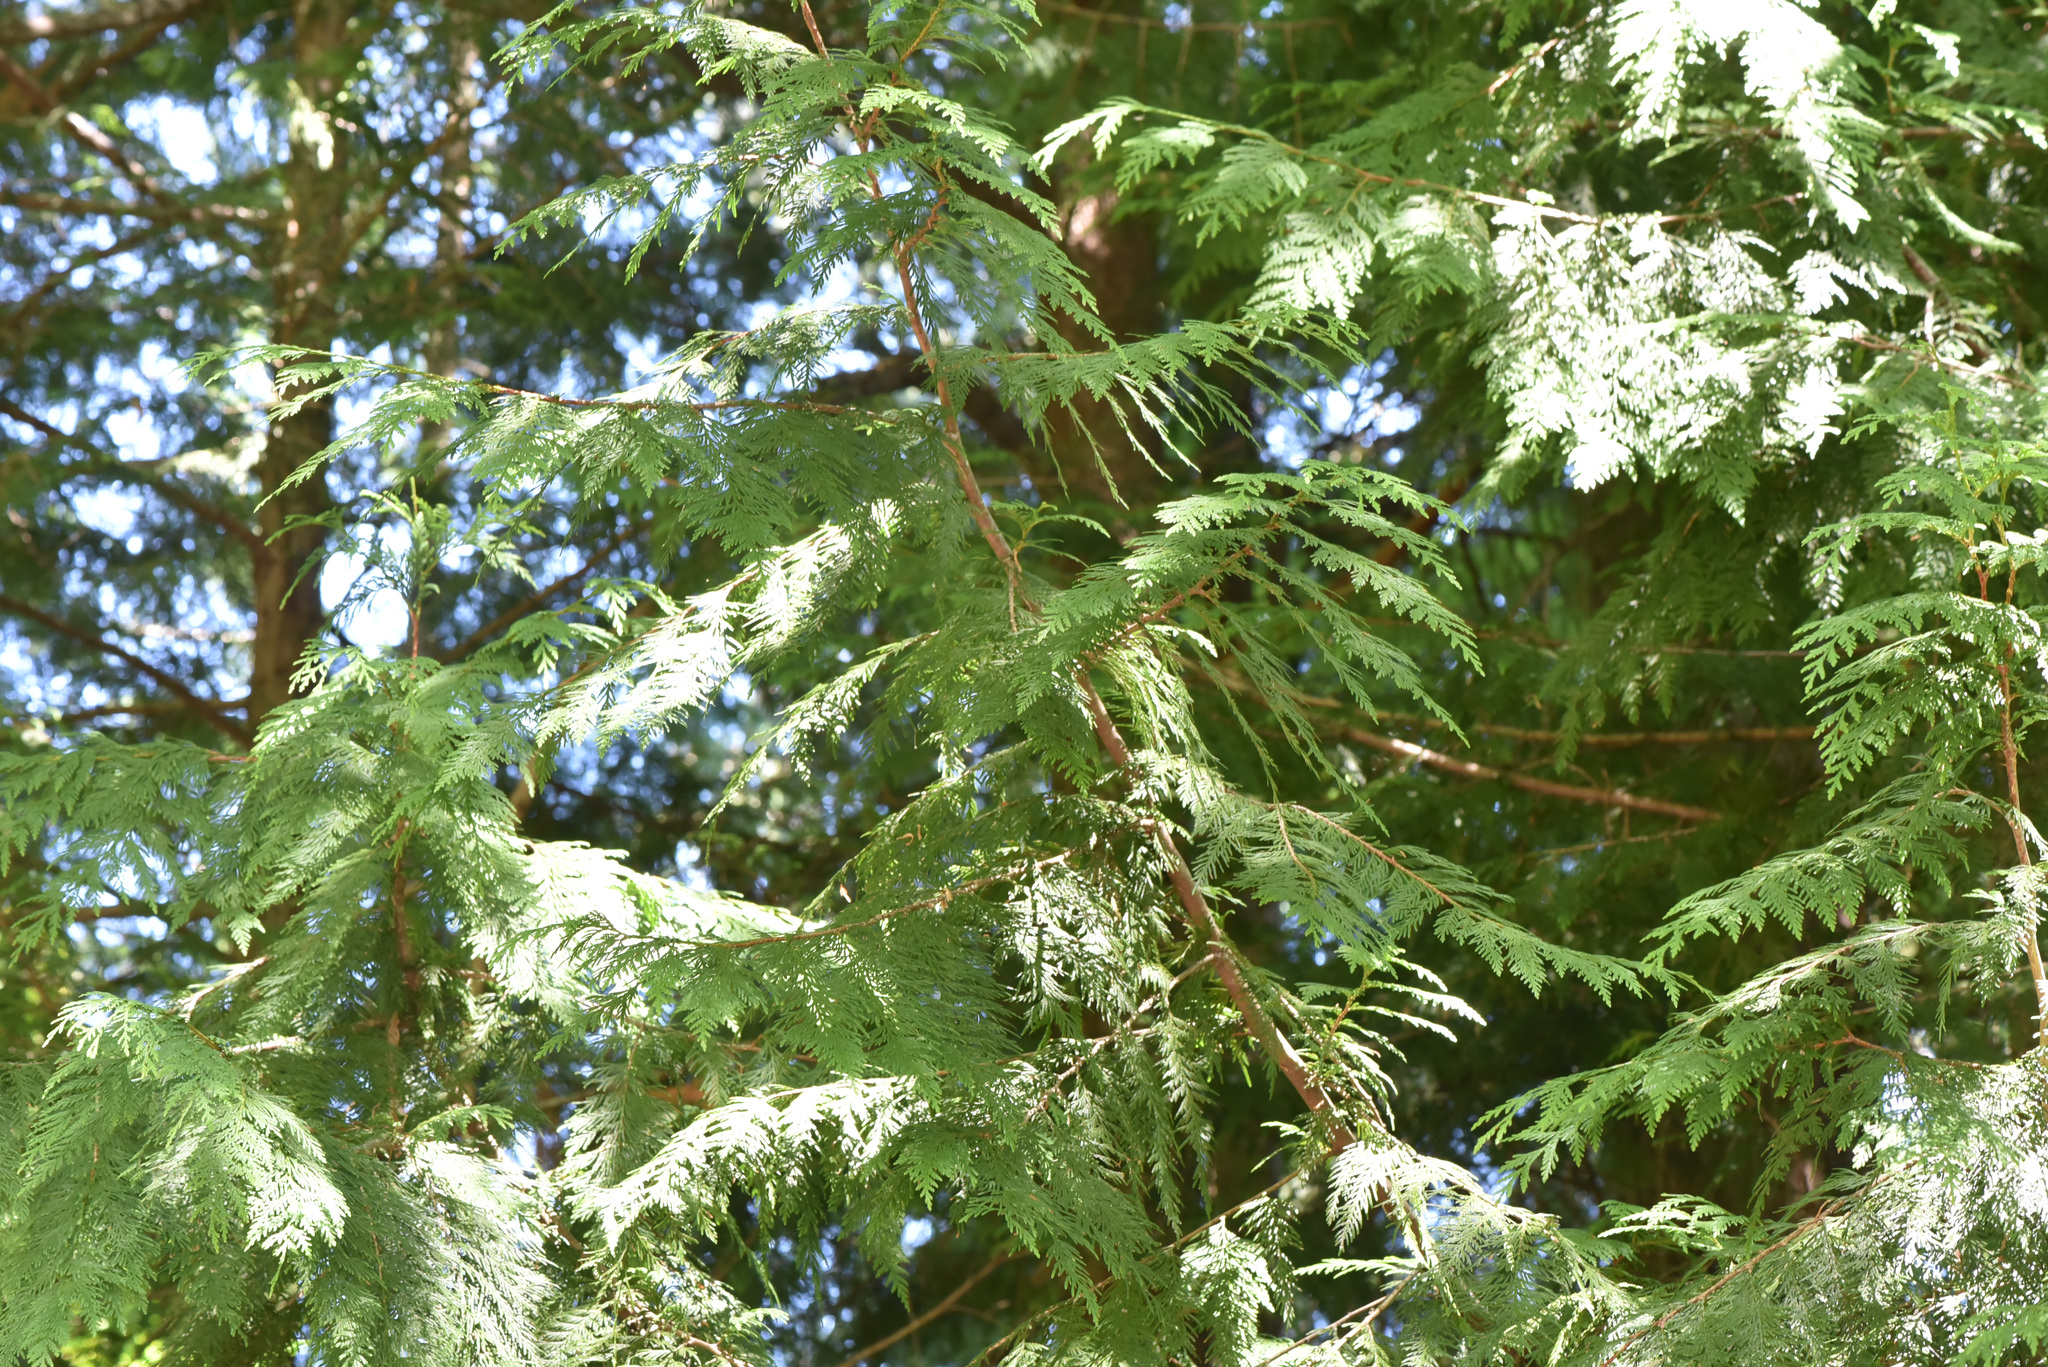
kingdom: Plantae
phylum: Tracheophyta
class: Pinopsida
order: Pinales
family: Cupressaceae
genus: Thuja
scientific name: Thuja plicata
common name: Western red-cedar
